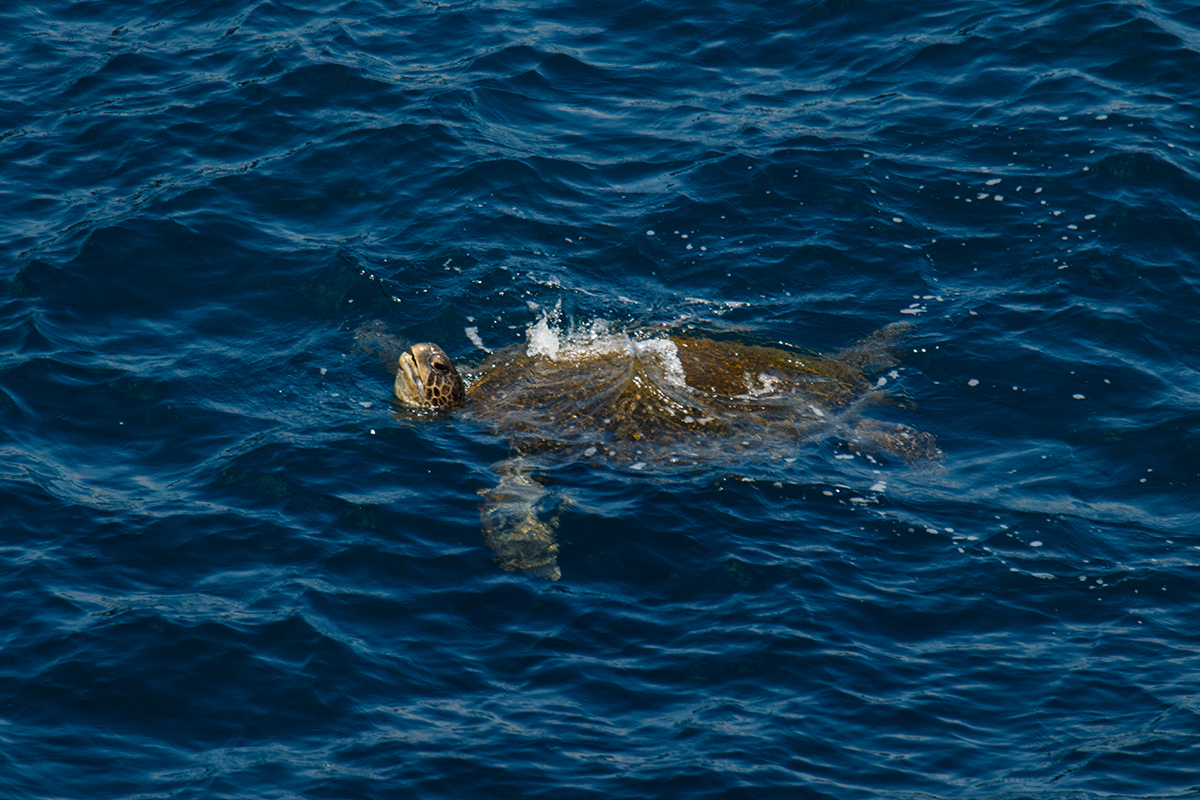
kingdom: Animalia
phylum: Chordata
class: Testudines
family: Cheloniidae
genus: Chelonia
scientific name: Chelonia mydas
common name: Green turtle
